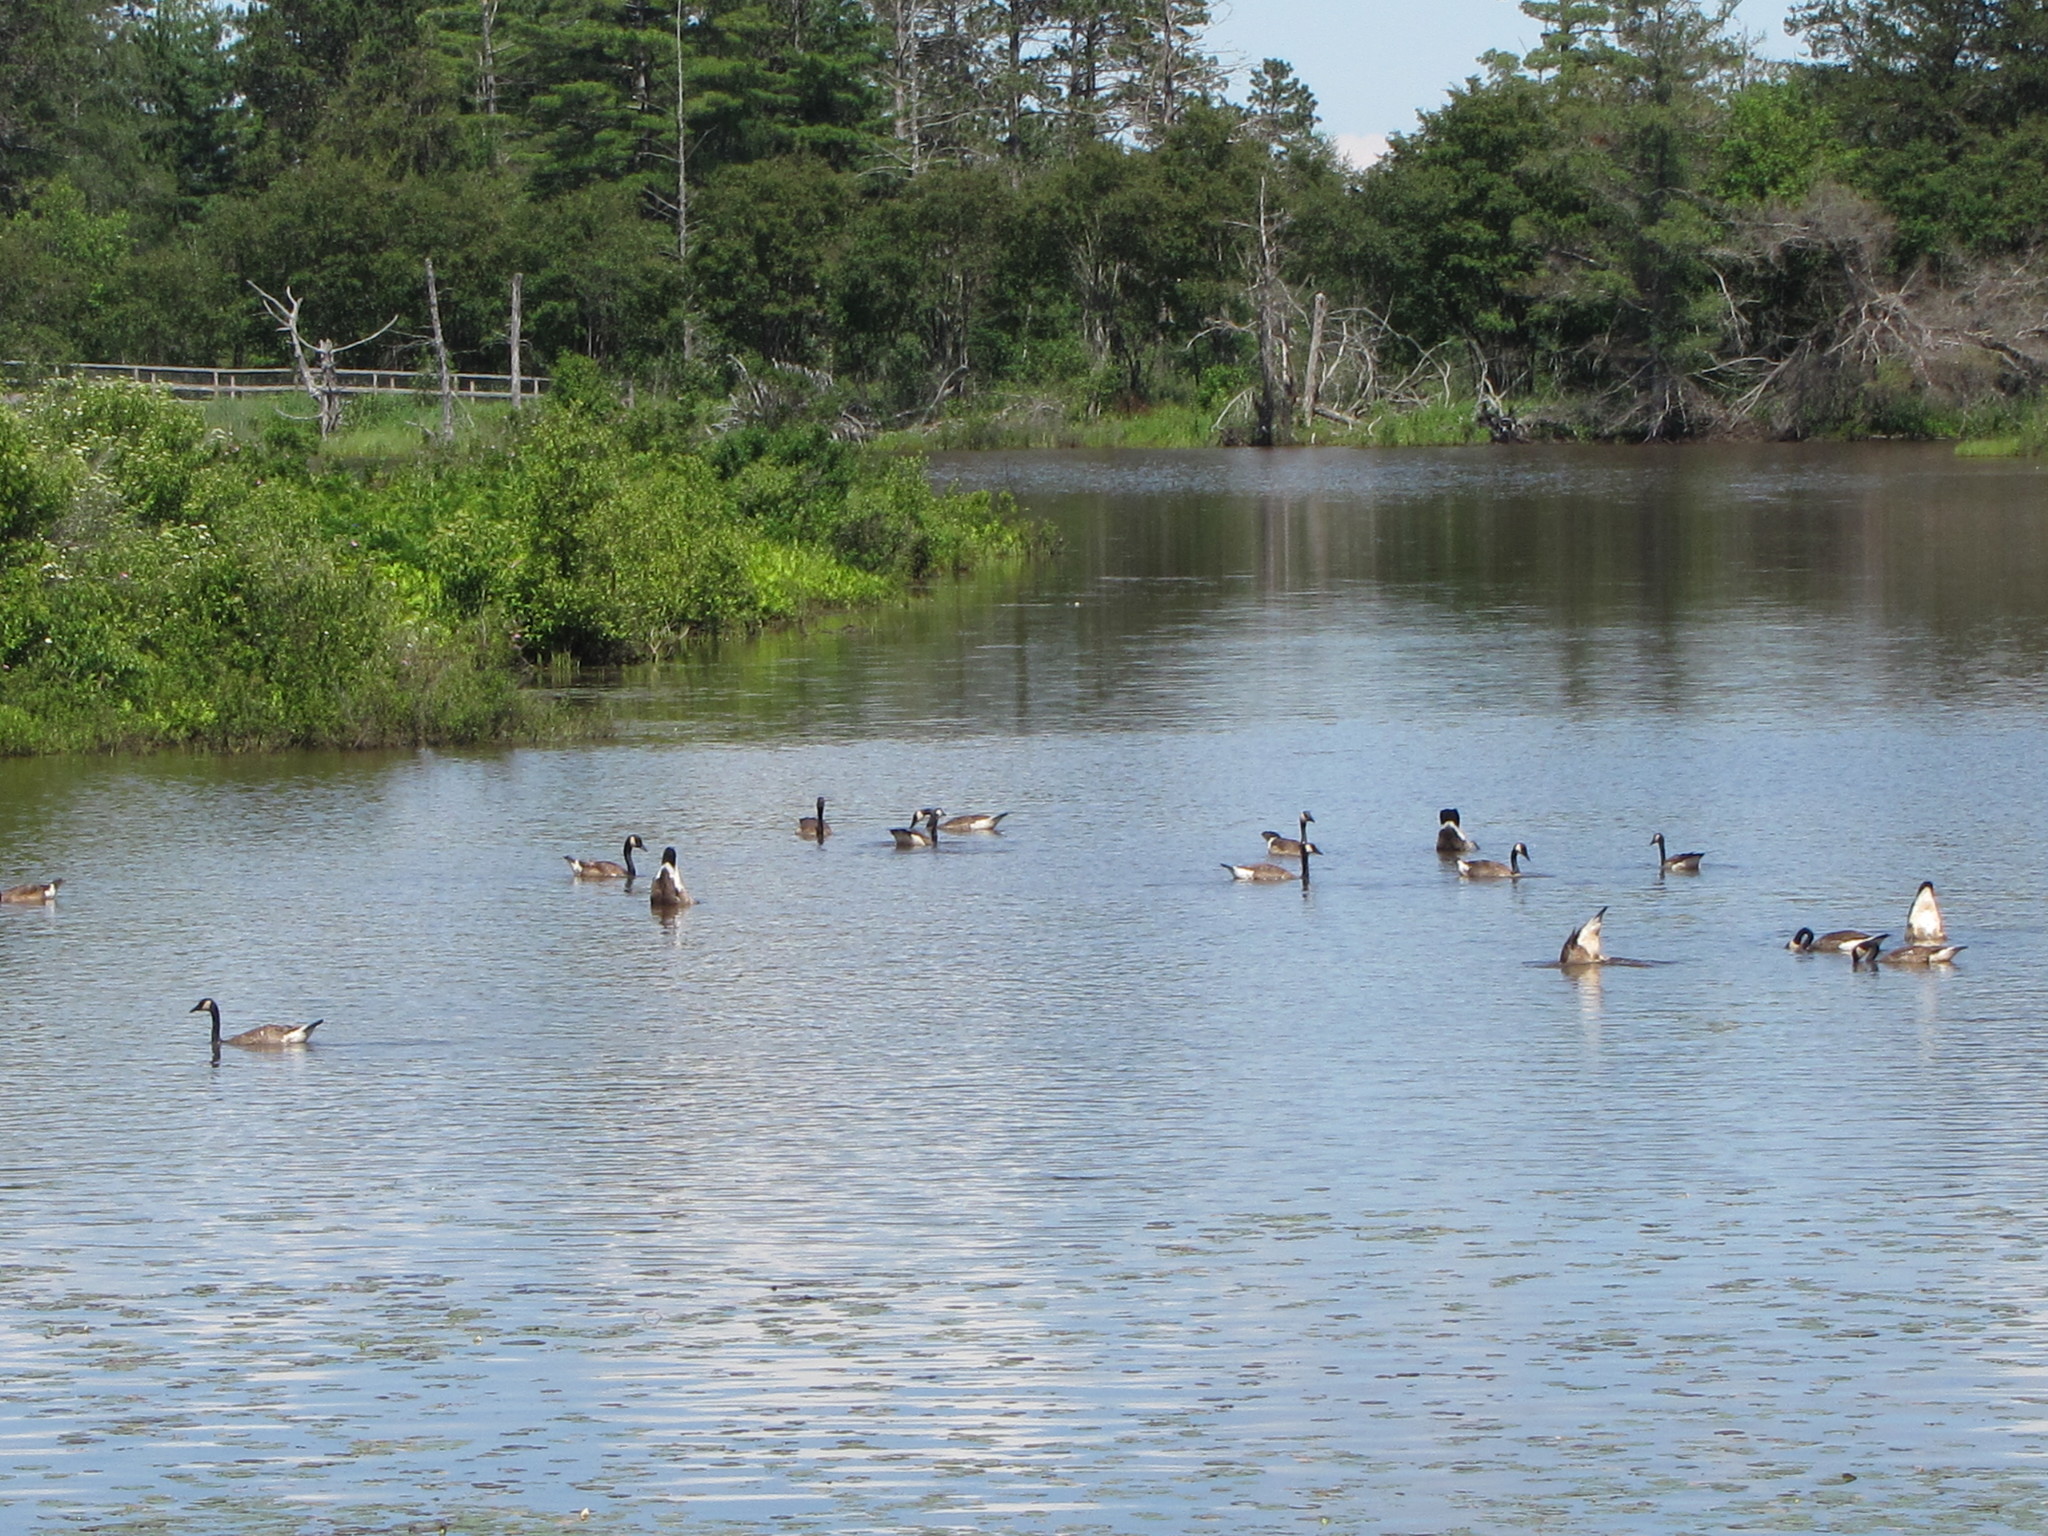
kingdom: Animalia
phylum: Chordata
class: Aves
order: Anseriformes
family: Anatidae
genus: Branta
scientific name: Branta canadensis
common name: Canada goose
